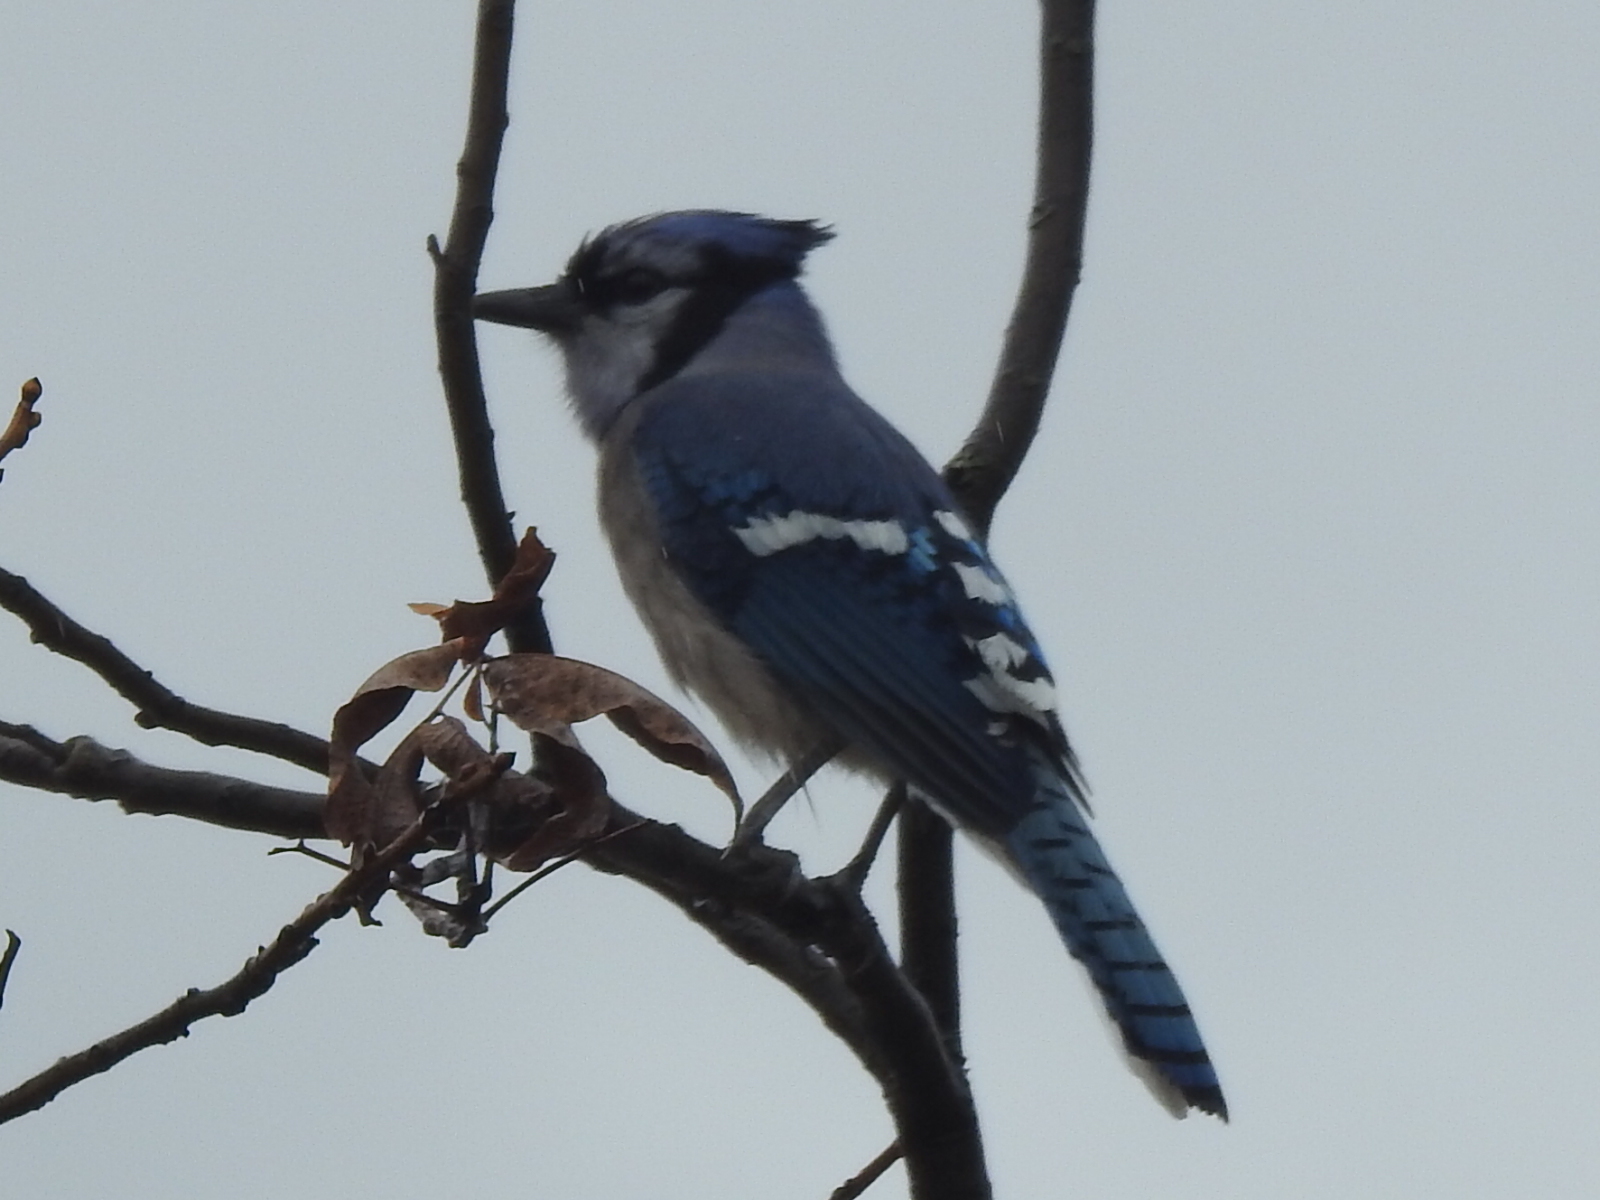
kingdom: Animalia
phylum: Chordata
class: Aves
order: Passeriformes
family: Corvidae
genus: Cyanocitta
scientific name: Cyanocitta cristata
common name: Blue jay
